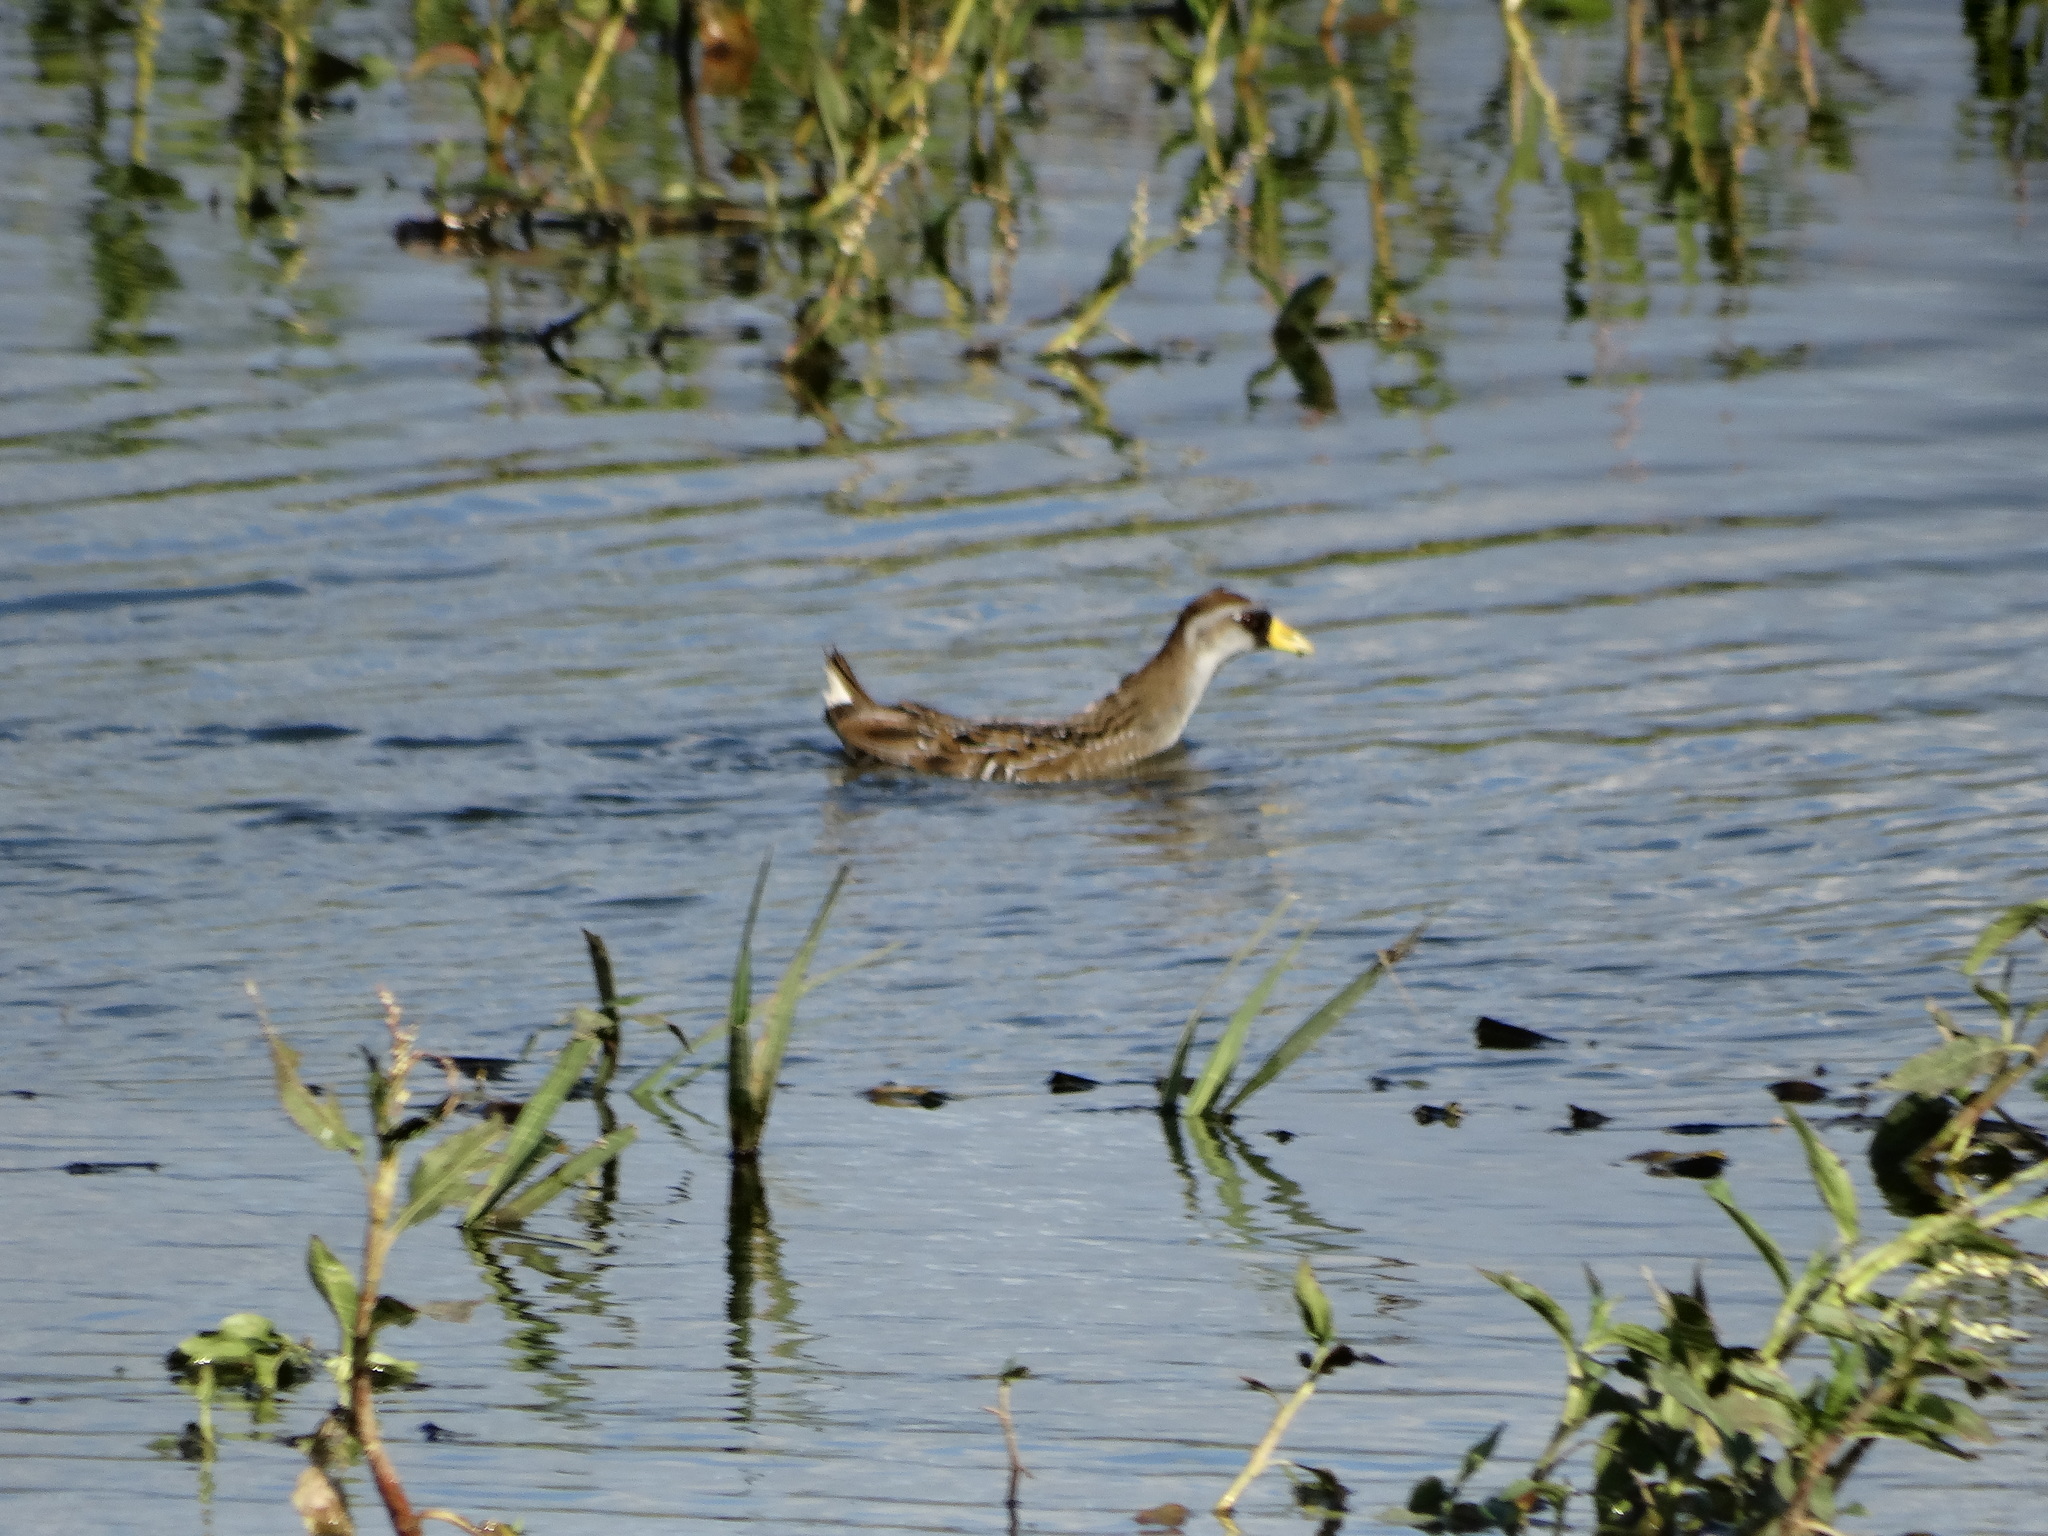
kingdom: Animalia
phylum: Chordata
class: Aves
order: Gruiformes
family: Rallidae
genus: Porzana
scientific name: Porzana carolina
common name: Sora
